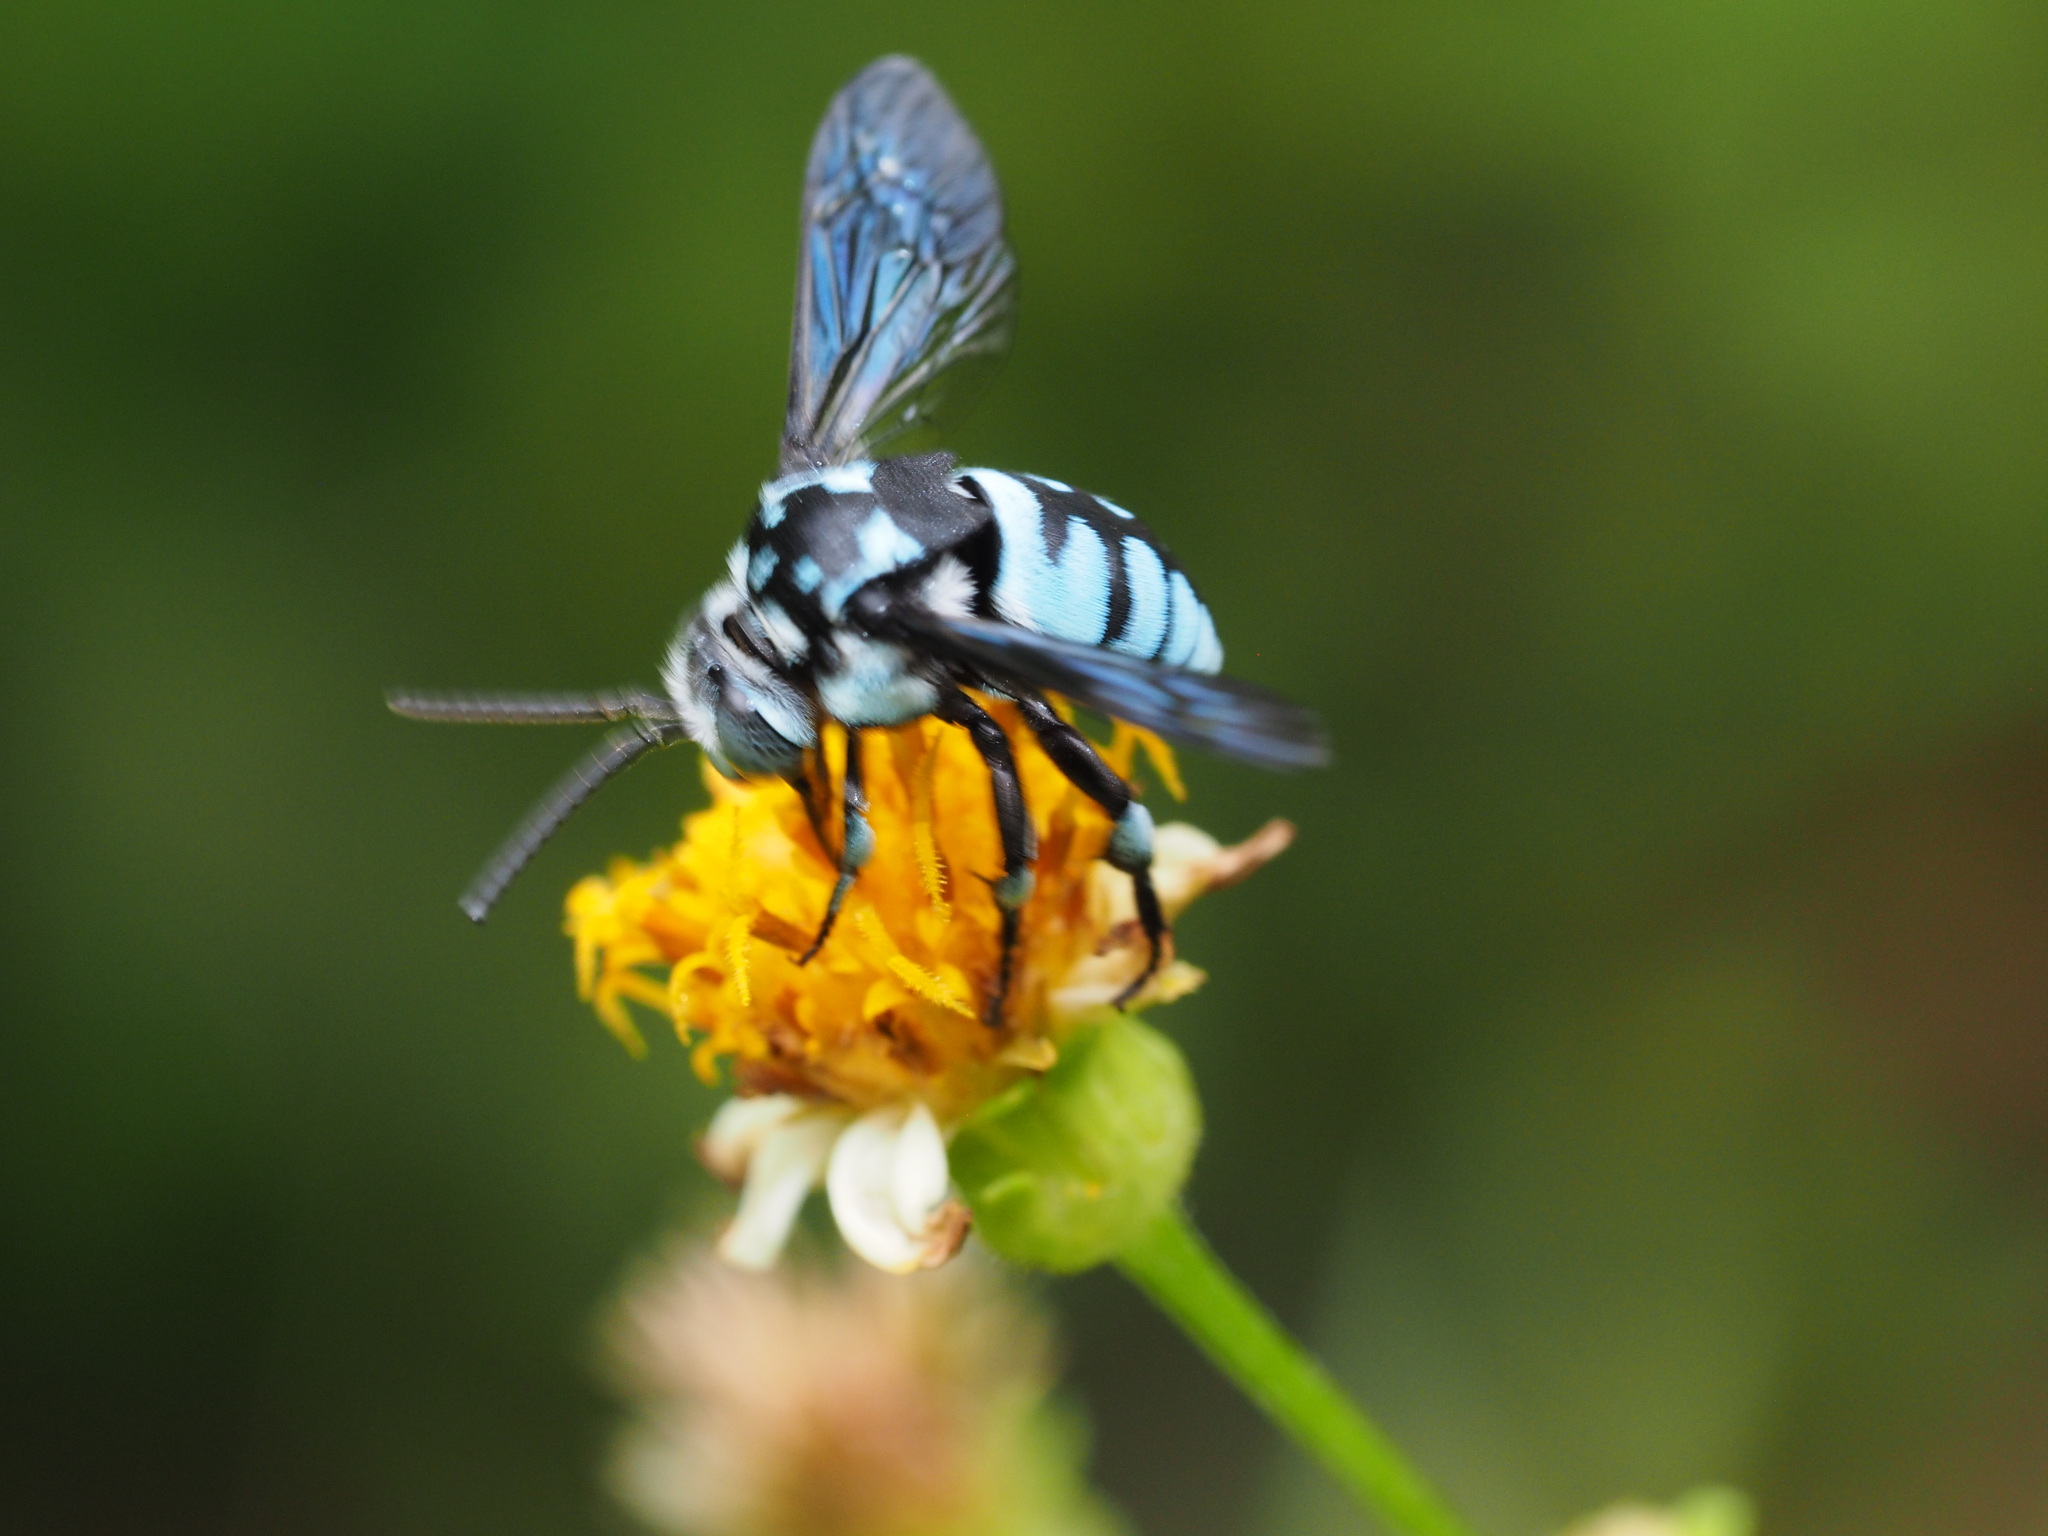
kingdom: Animalia
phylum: Arthropoda
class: Insecta
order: Hymenoptera
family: Apidae
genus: Thyreus
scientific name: Thyreus himalayensis
